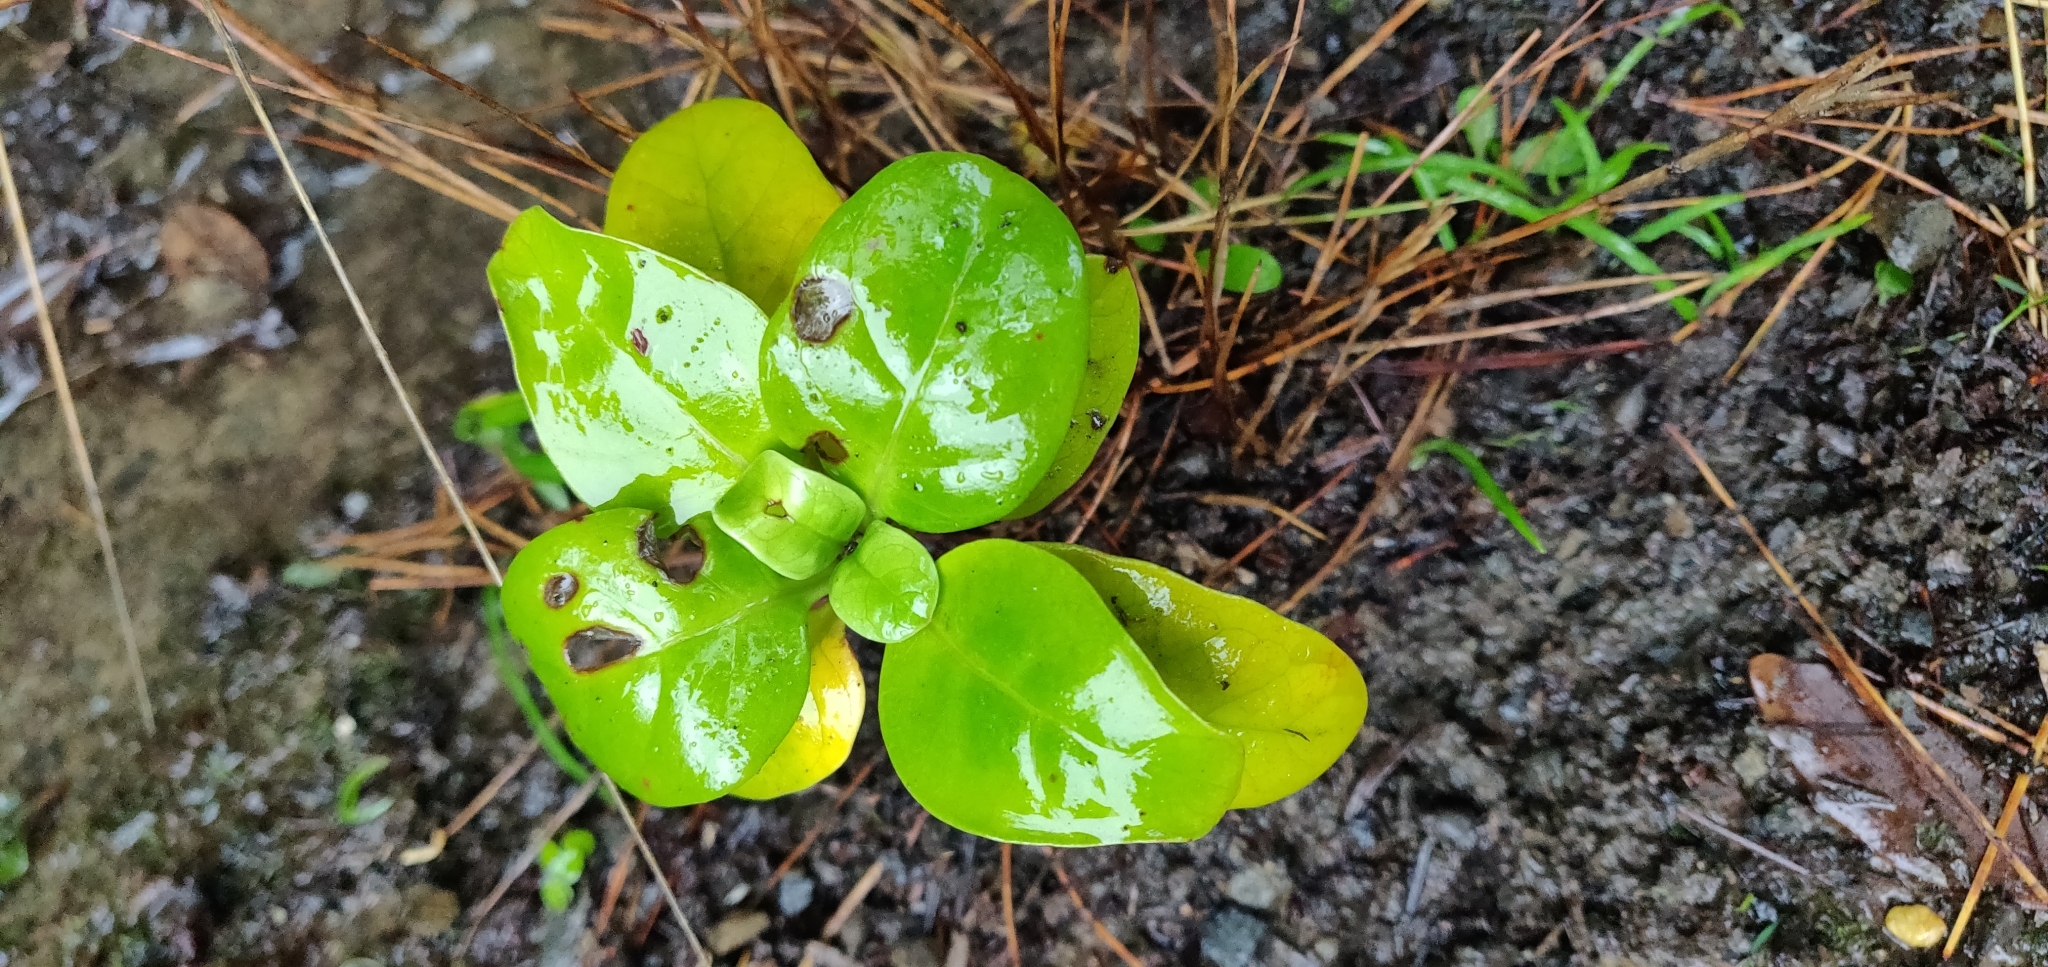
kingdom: Plantae
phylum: Tracheophyta
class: Magnoliopsida
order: Gentianales
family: Rubiaceae
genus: Coprosma
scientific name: Coprosma repens
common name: Tree bedstraw
